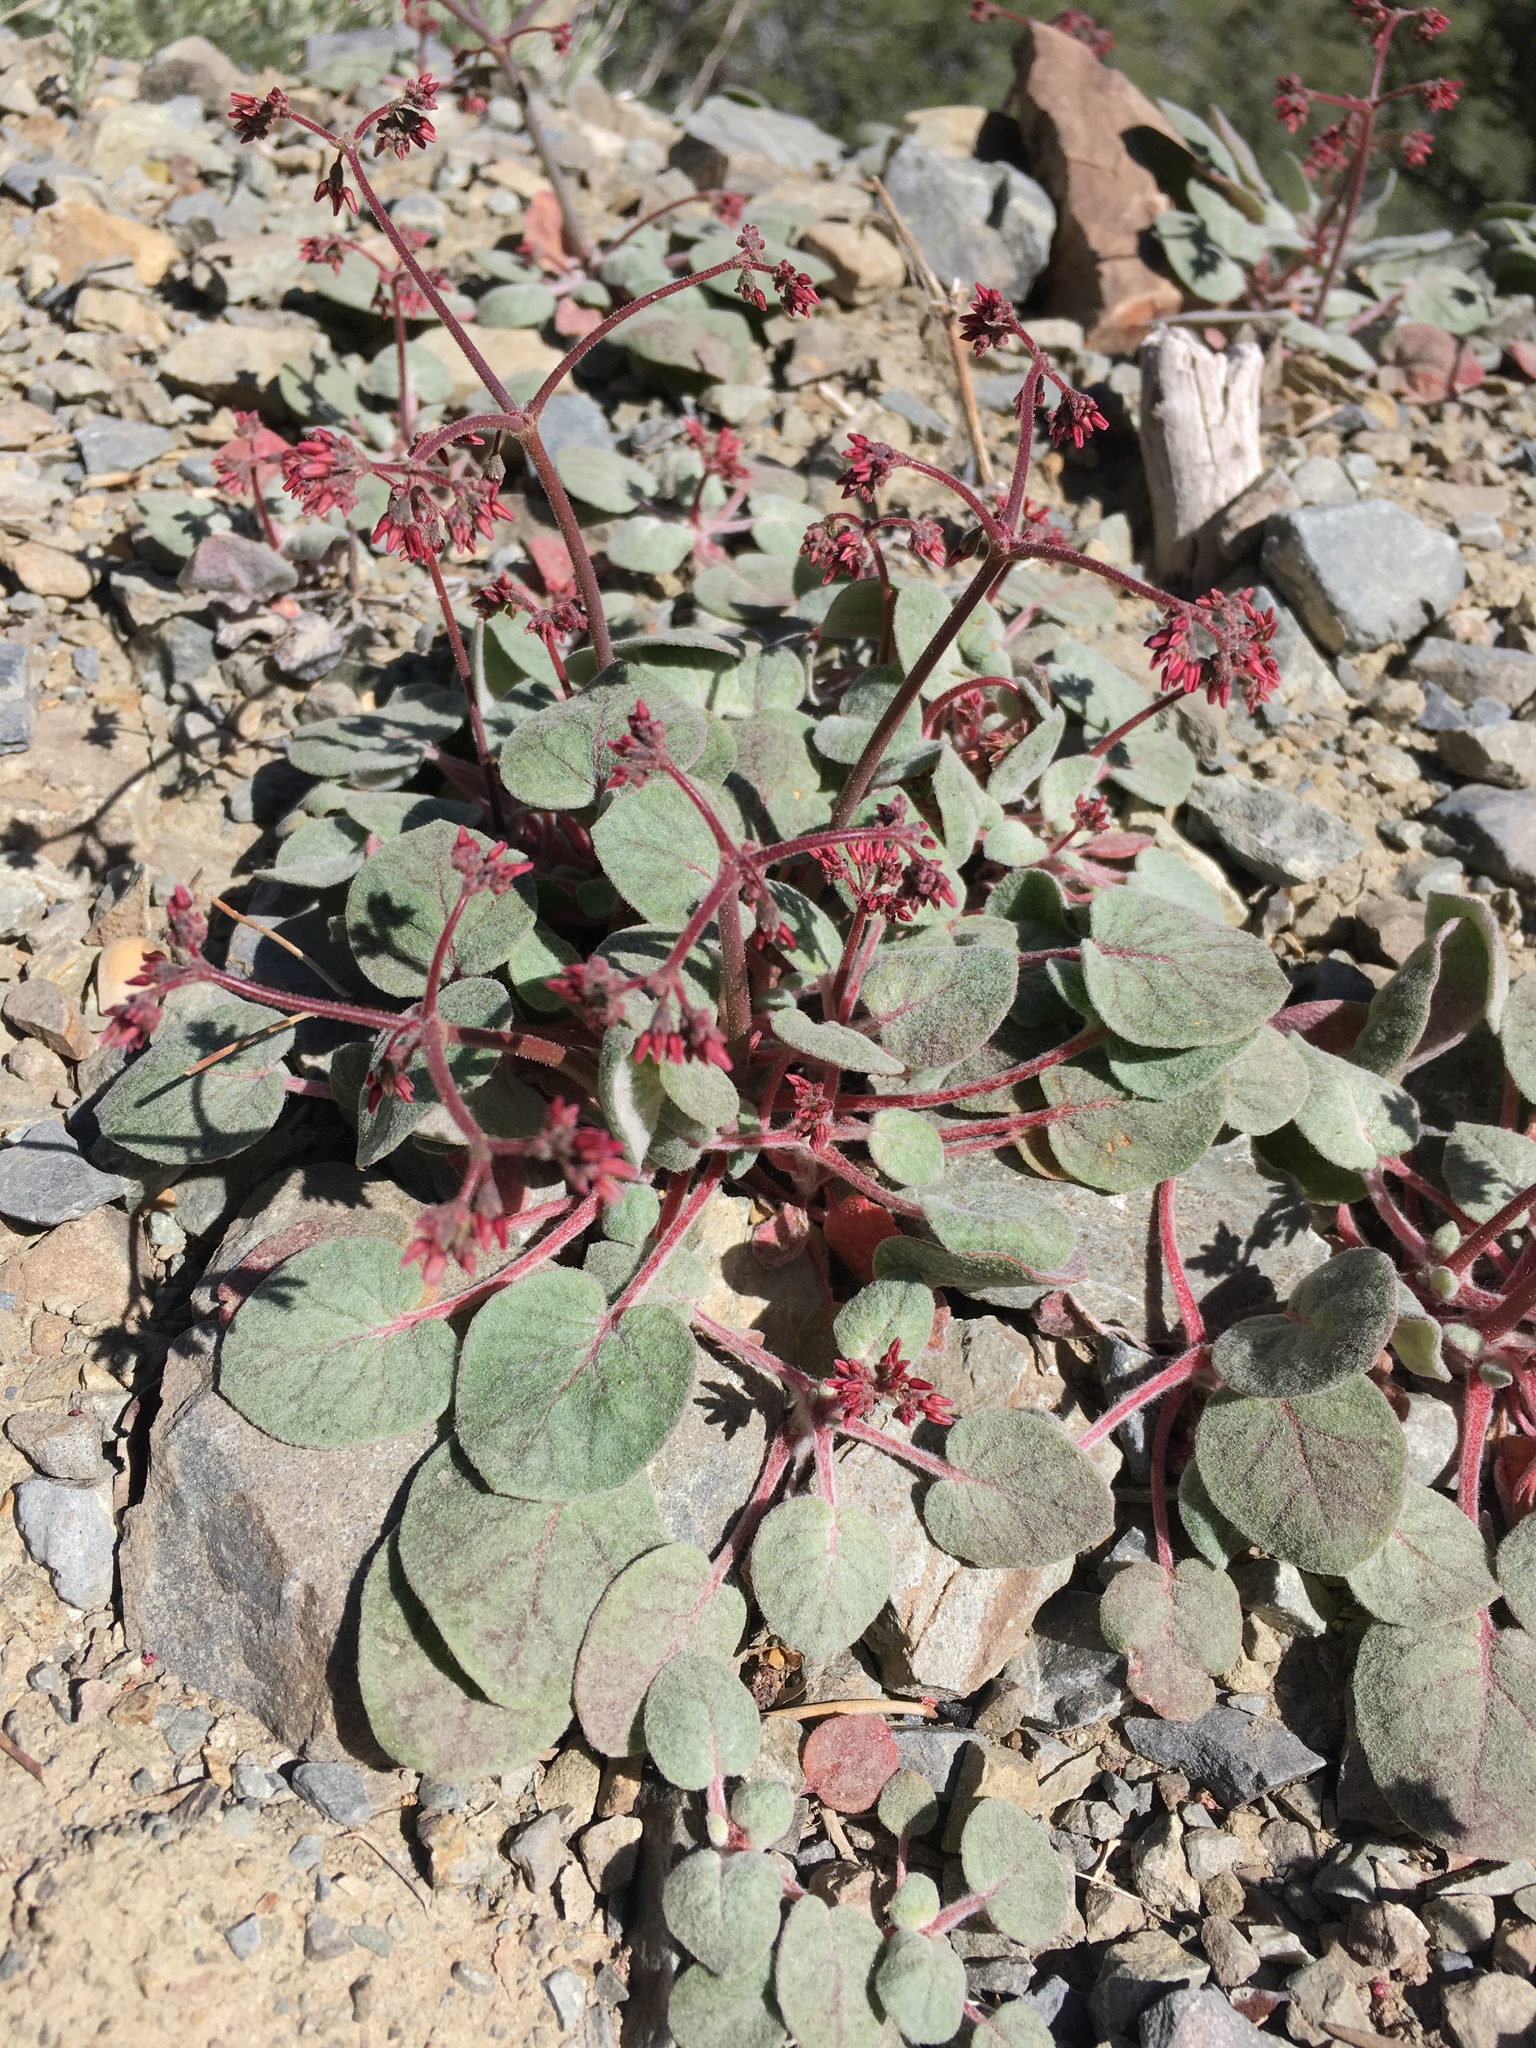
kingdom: Plantae
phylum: Tracheophyta
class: Magnoliopsida
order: Caryophyllales
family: Polygonaceae
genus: Eriogonum
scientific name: Eriogonum eremicola
